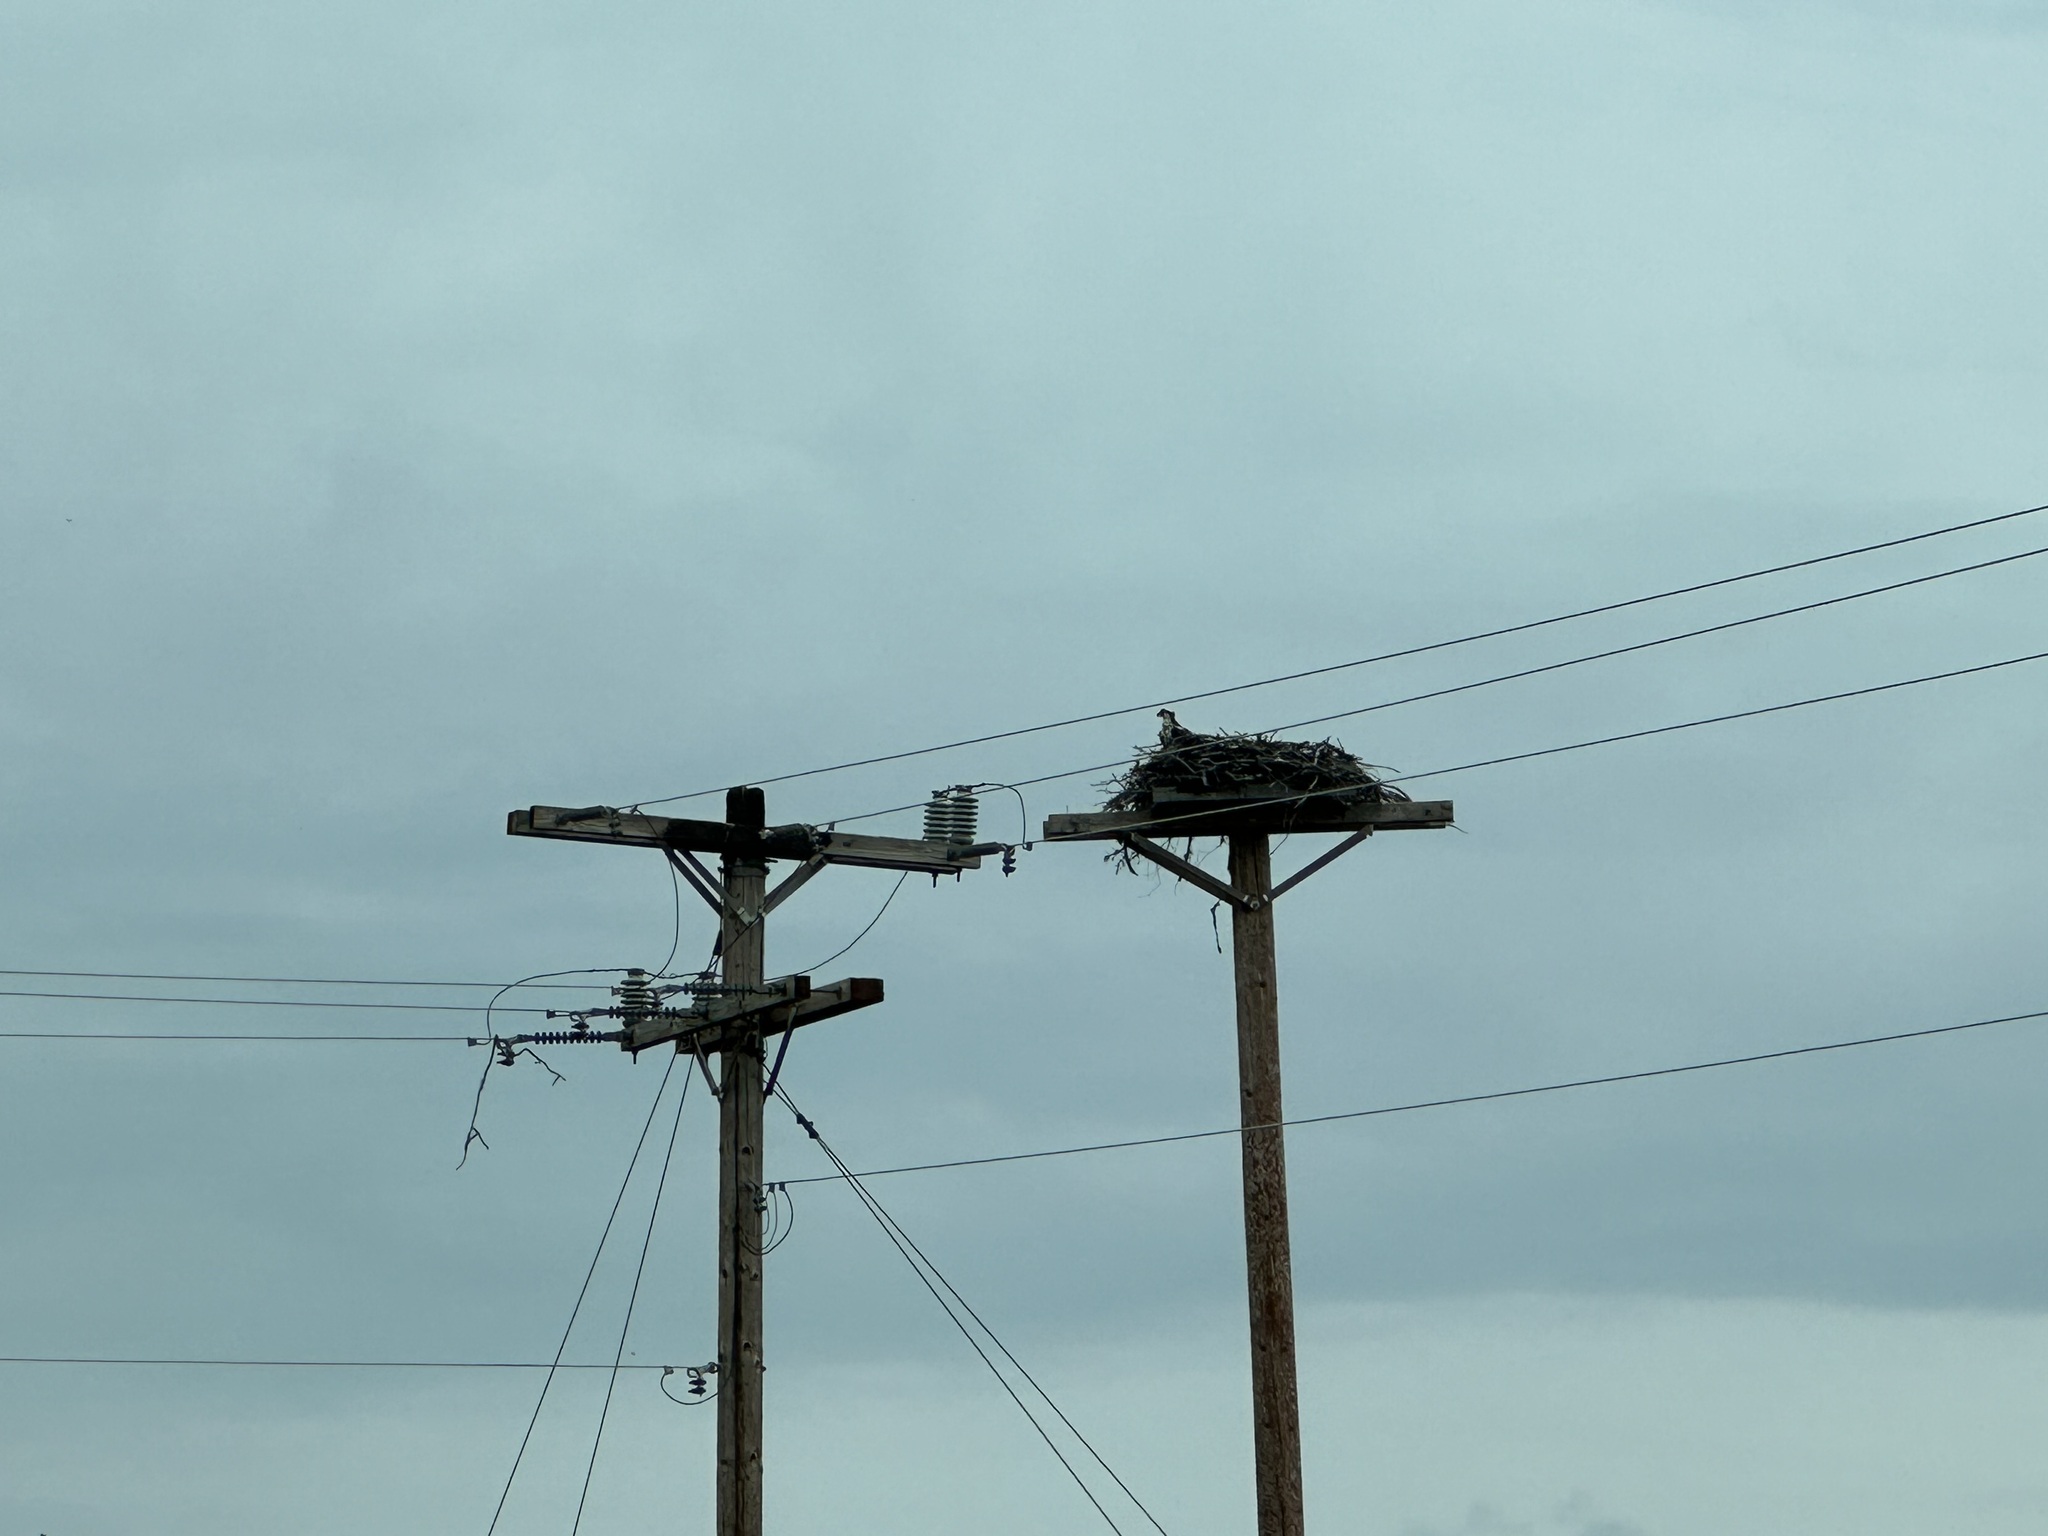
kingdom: Animalia
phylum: Chordata
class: Aves
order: Accipitriformes
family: Pandionidae
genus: Pandion
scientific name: Pandion haliaetus
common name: Osprey
